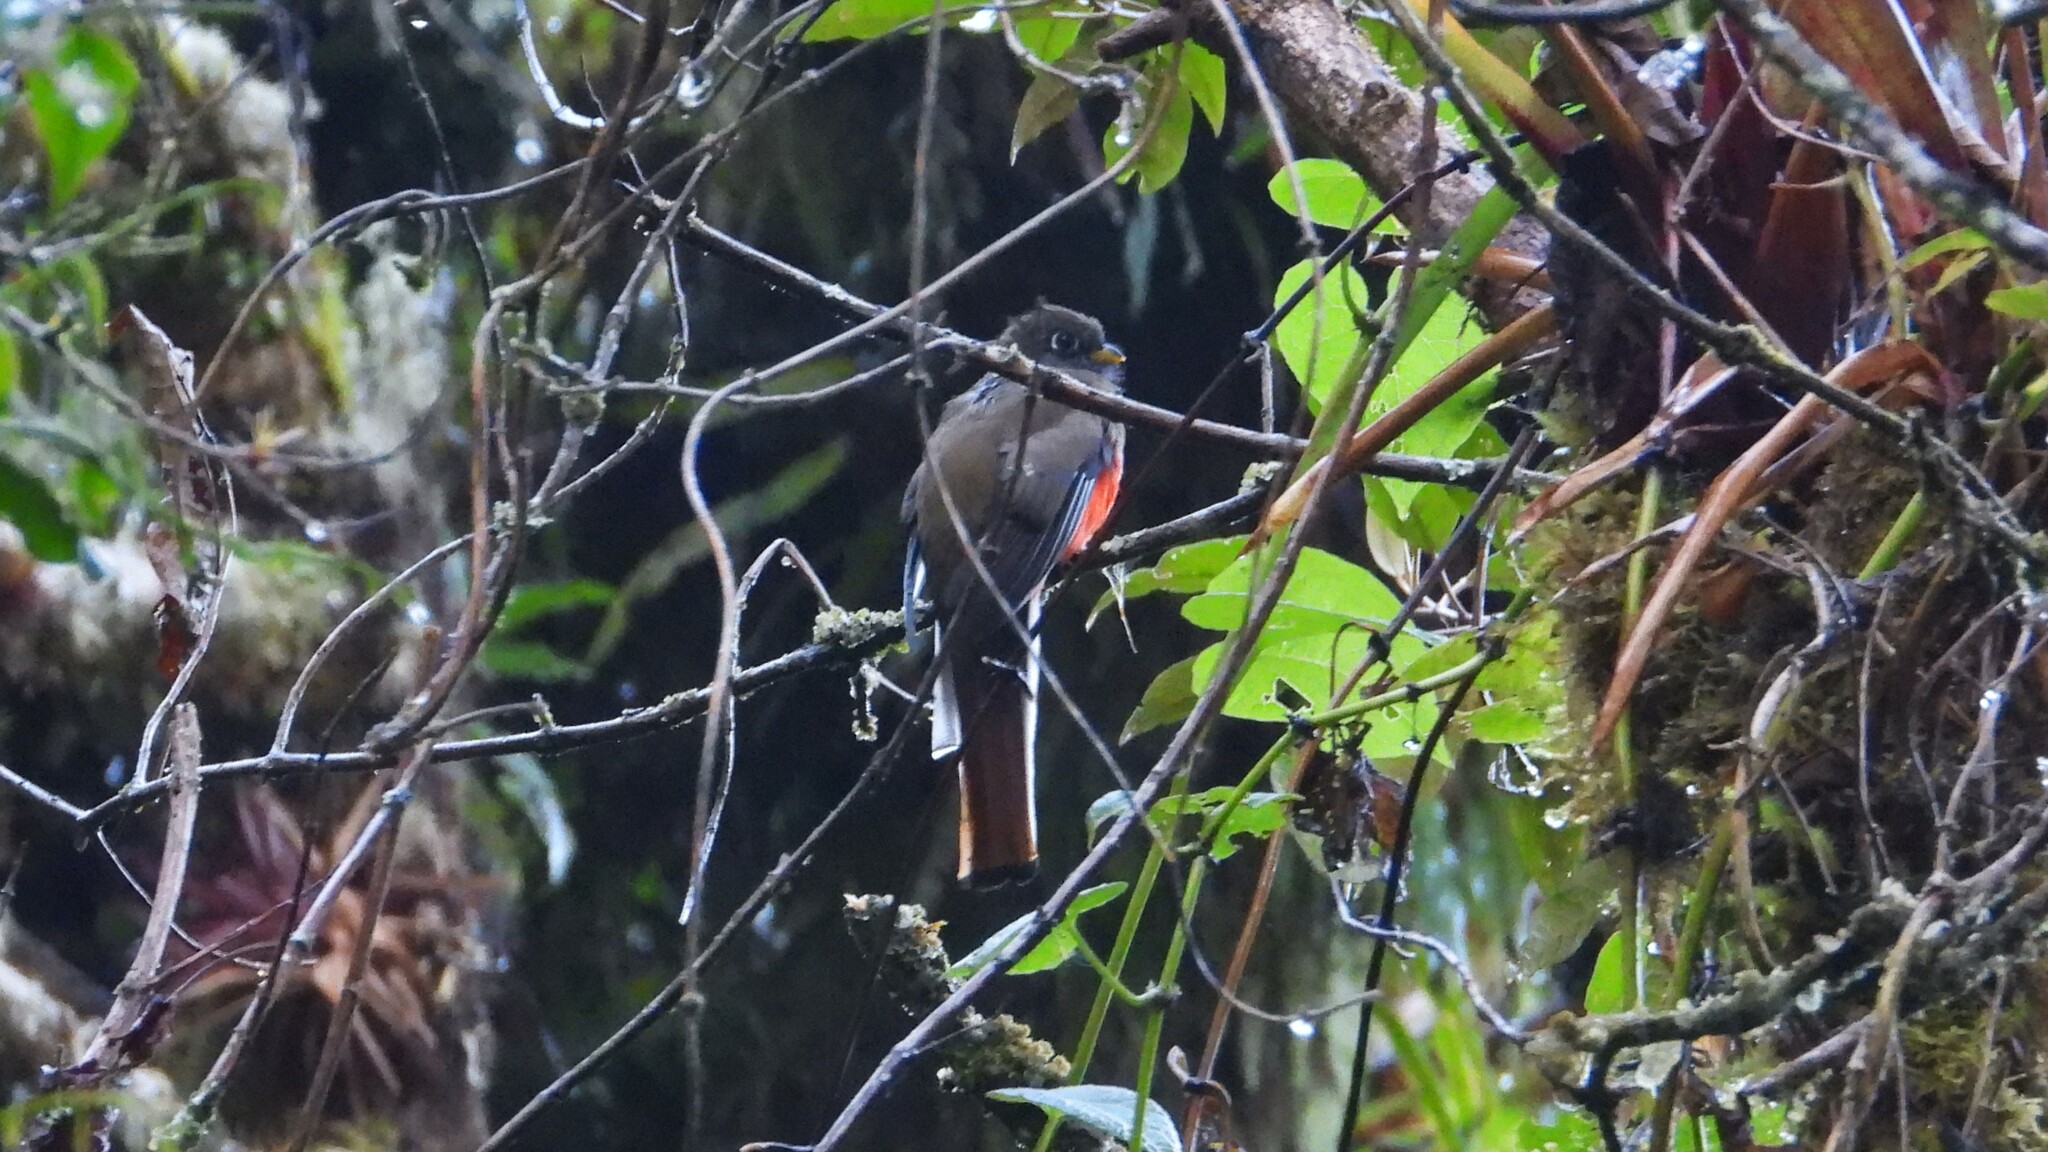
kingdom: Animalia
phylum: Chordata
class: Aves
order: Trogoniformes
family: Trogonidae
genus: Trogon
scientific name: Trogon collaris
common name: Collared trogon
